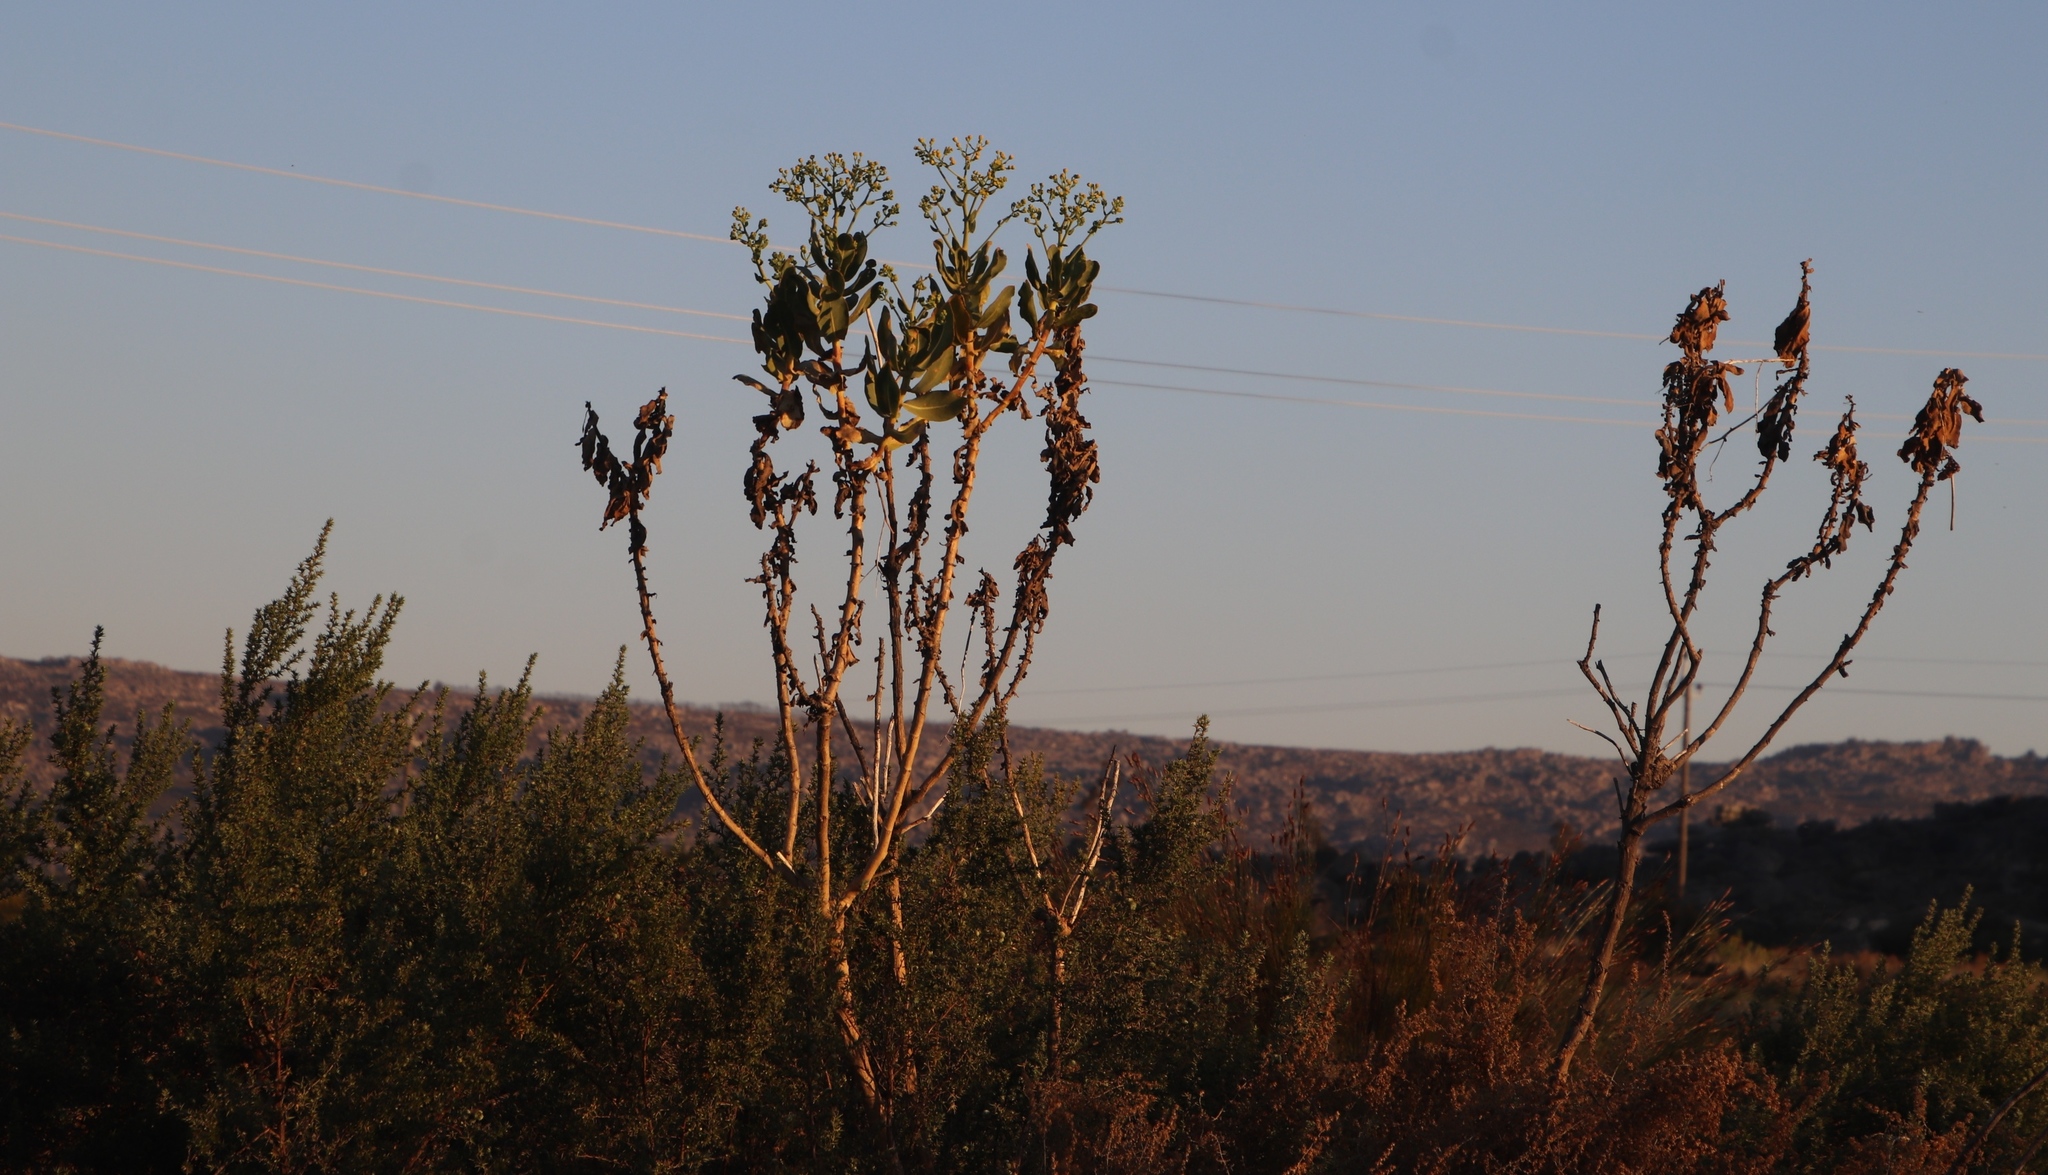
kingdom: Plantae
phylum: Tracheophyta
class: Magnoliopsida
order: Asterales
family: Asteraceae
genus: Othonna
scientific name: Othonna parviflora
